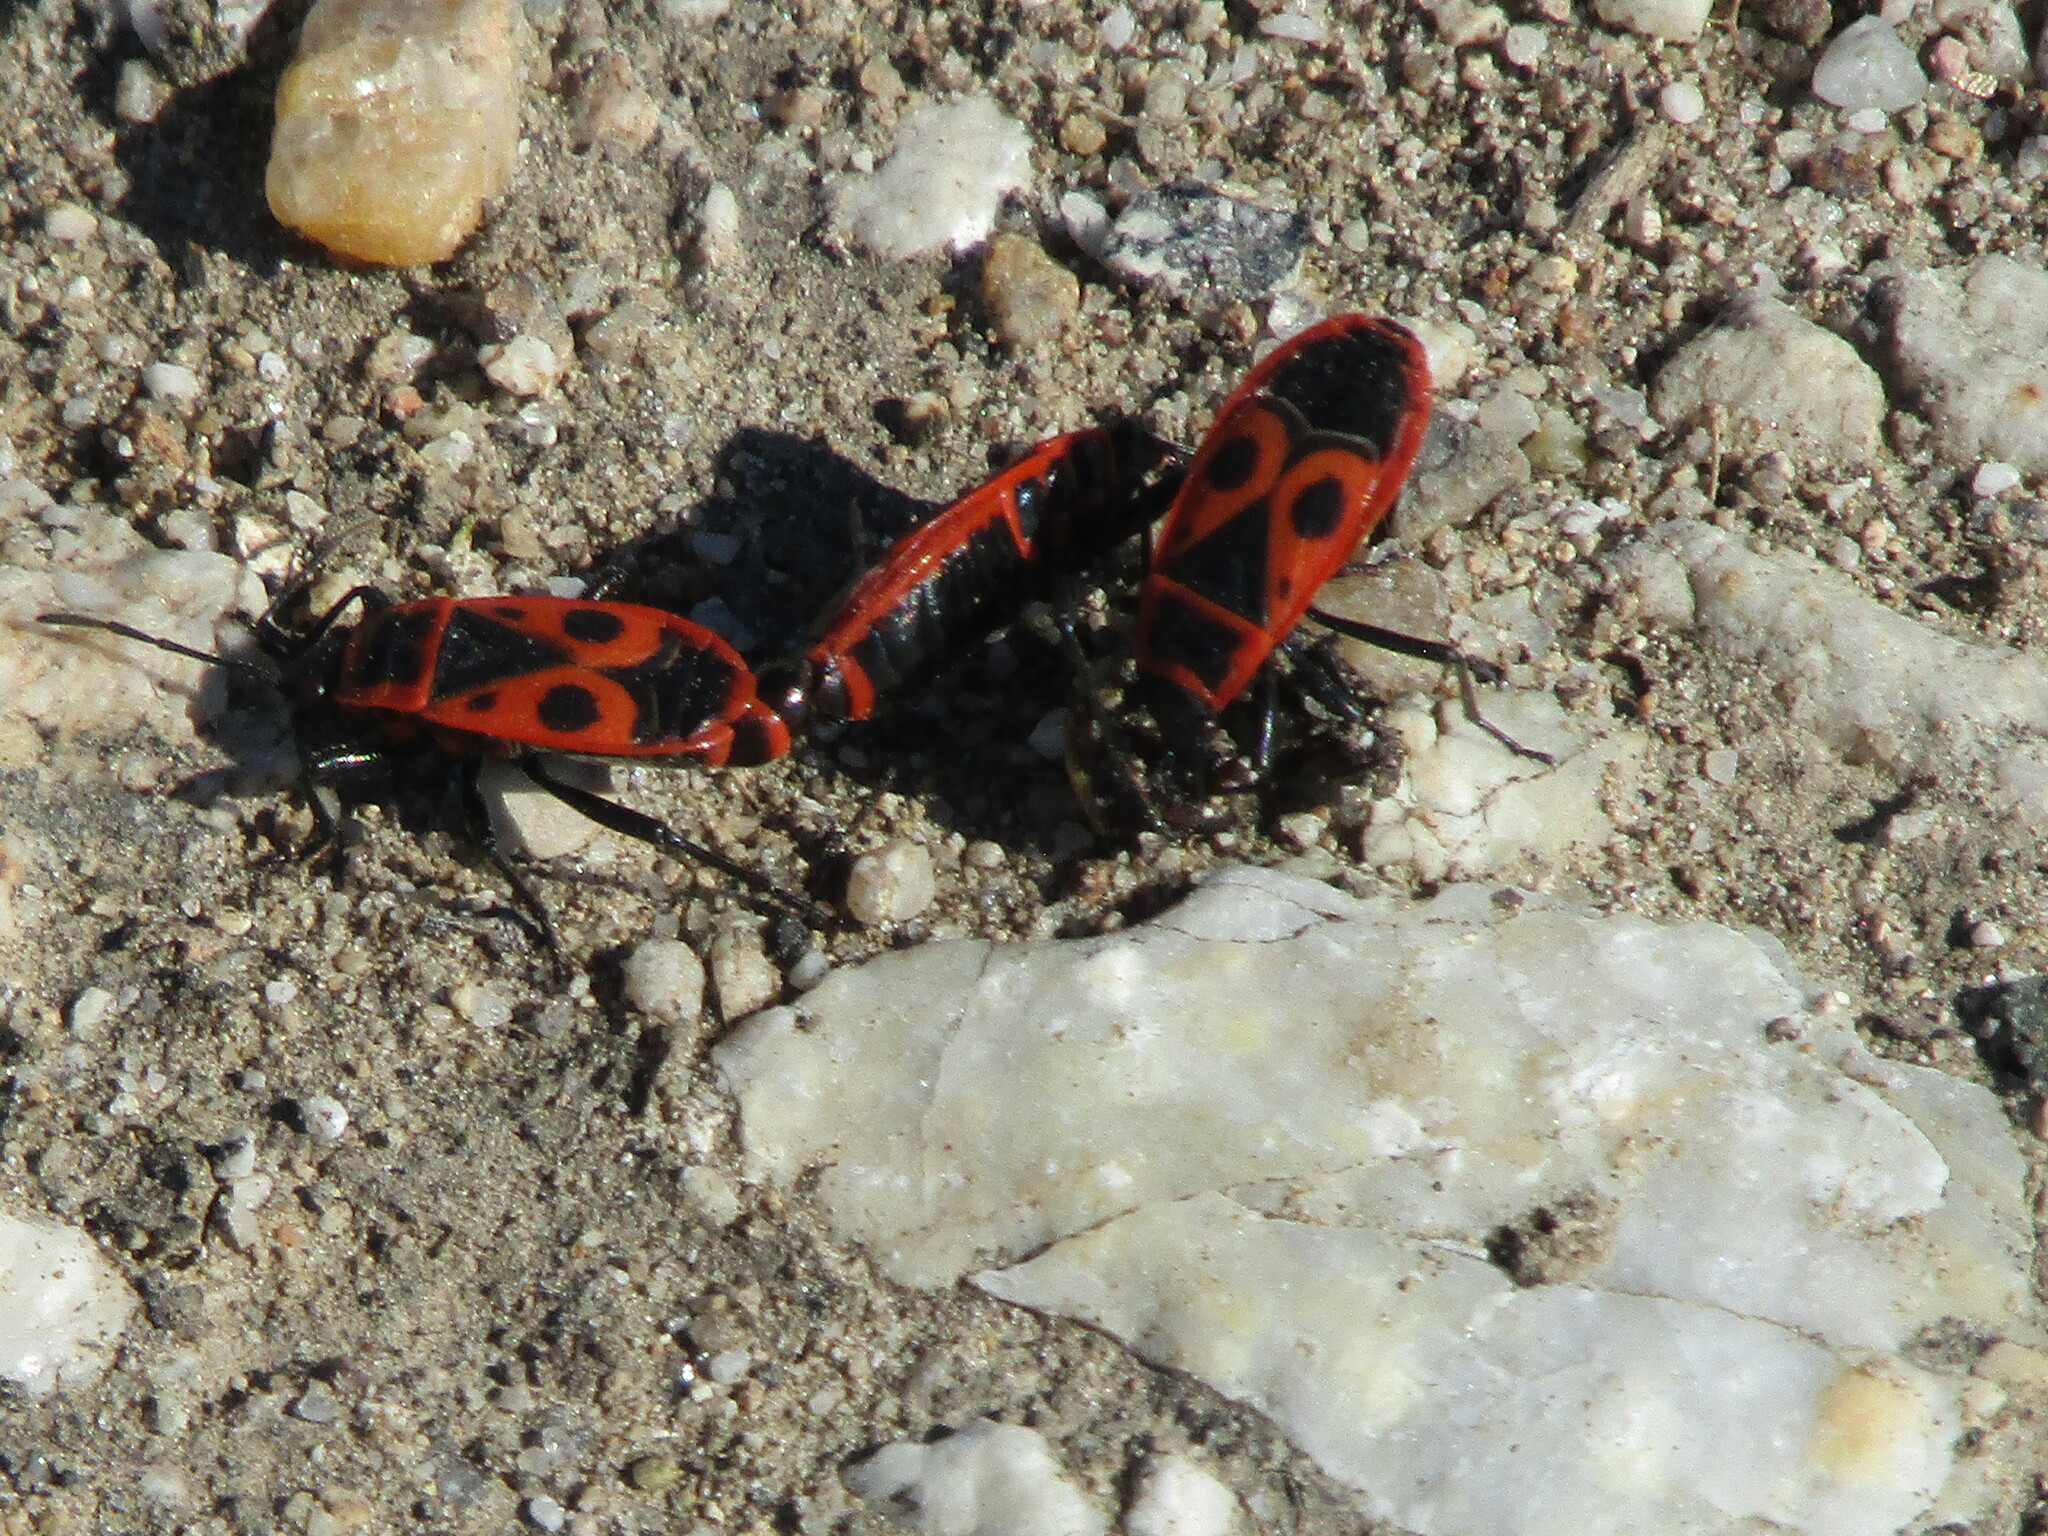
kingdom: Animalia
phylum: Arthropoda
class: Insecta
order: Hemiptera
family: Pyrrhocoridae
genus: Pyrrhocoris
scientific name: Pyrrhocoris apterus
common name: Firebug
